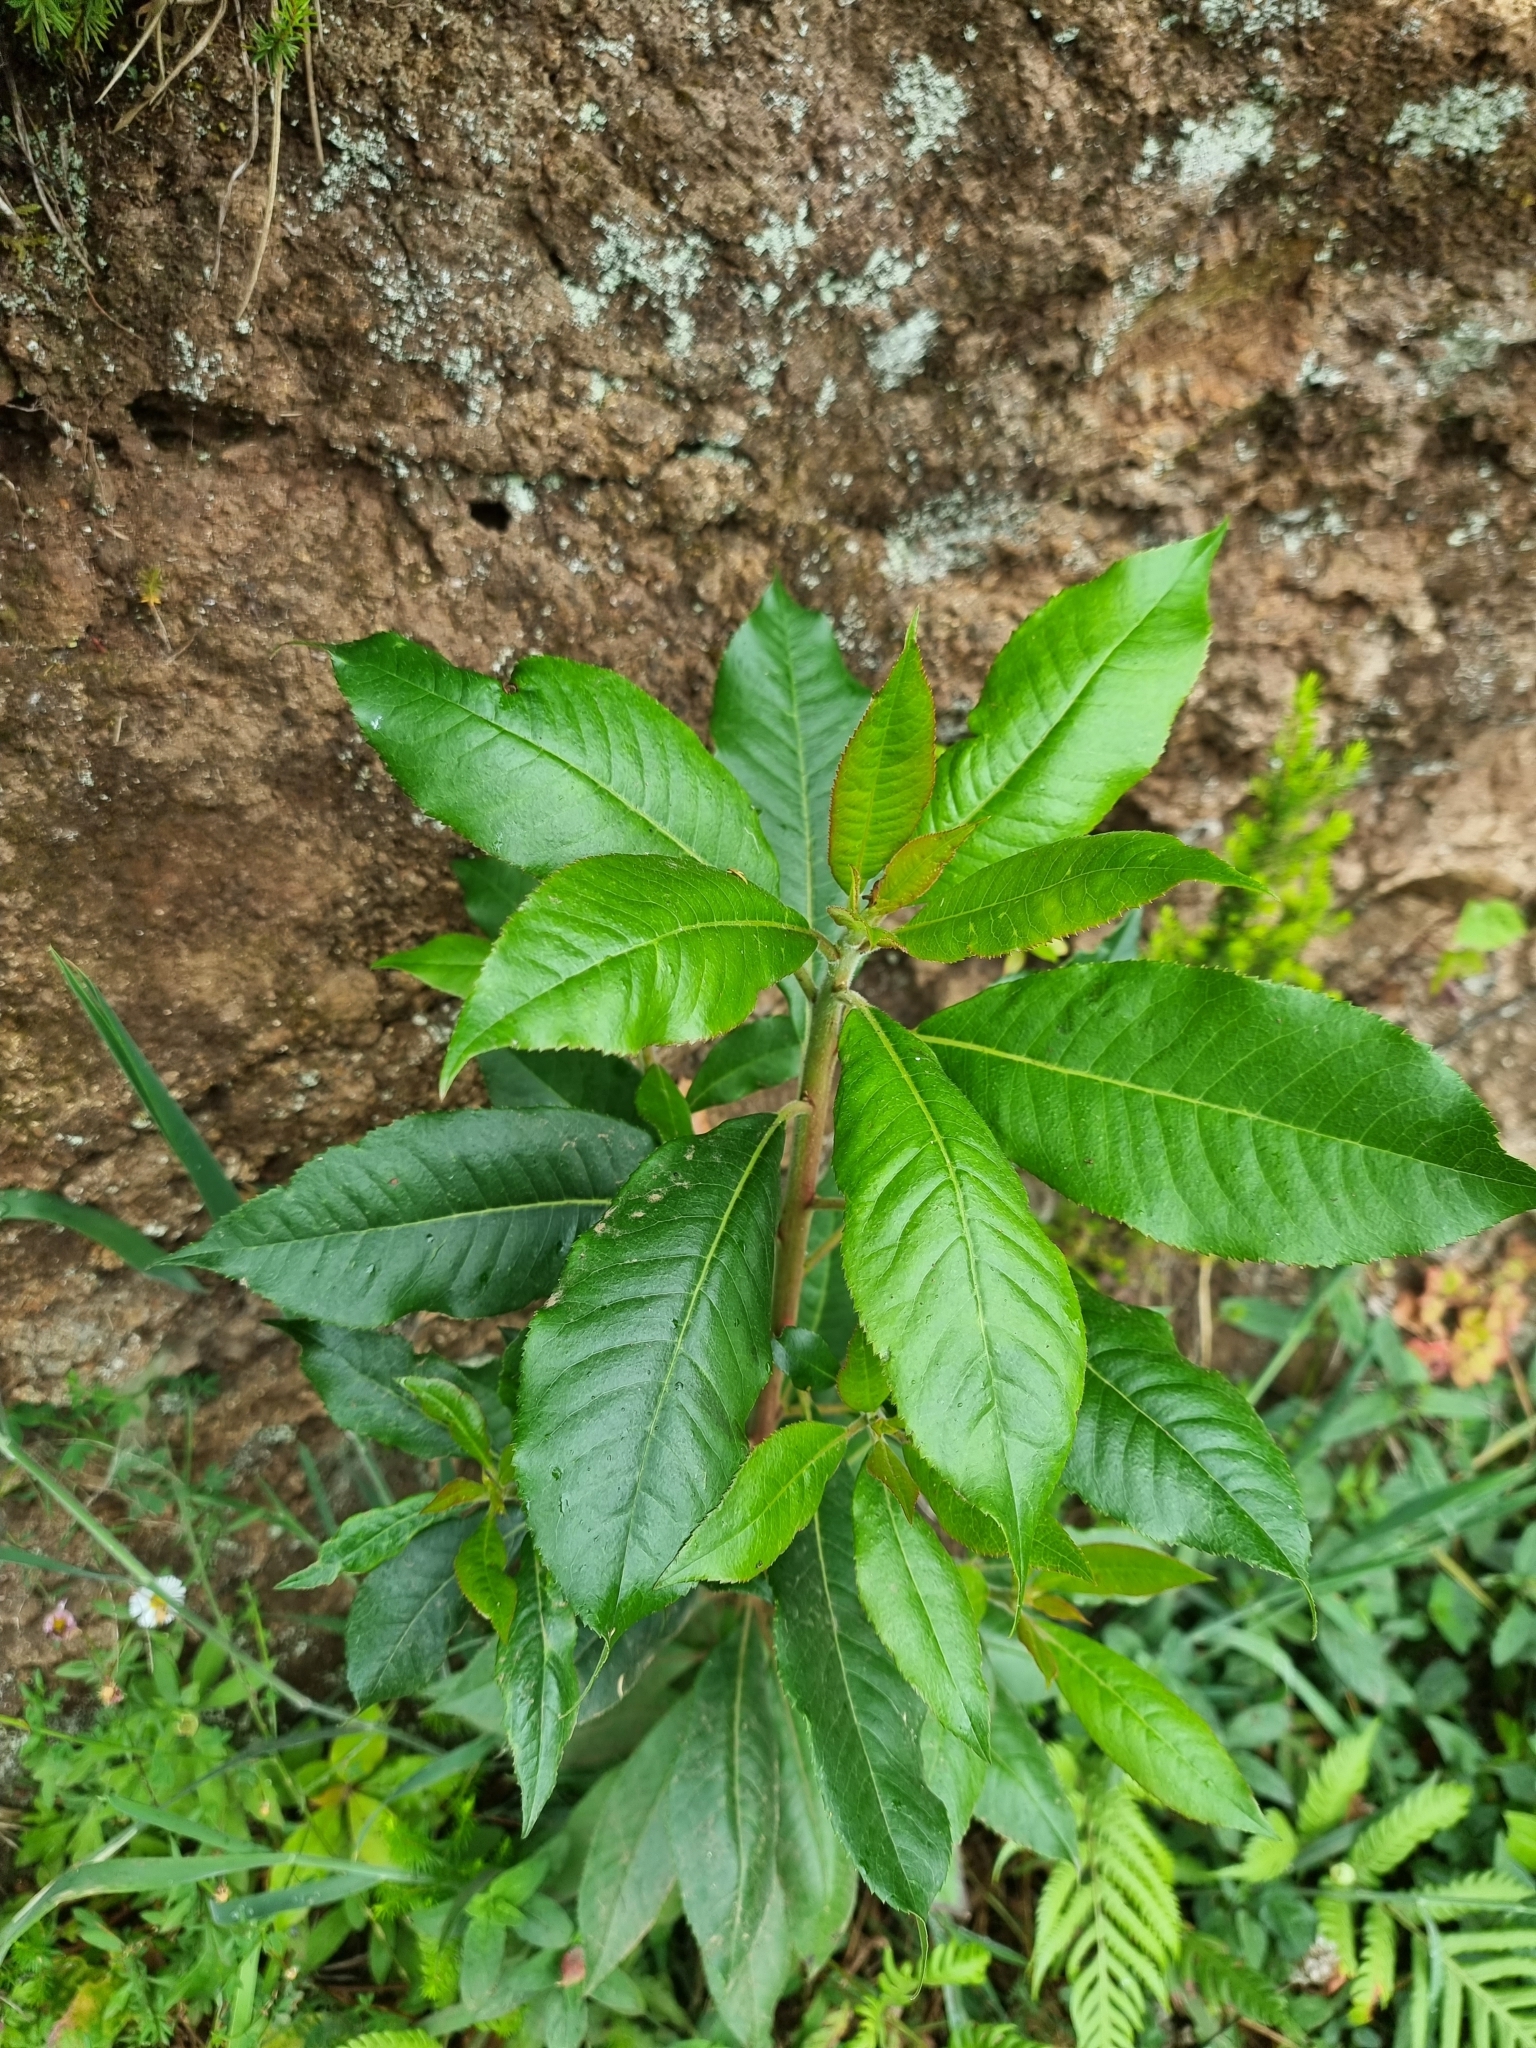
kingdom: Plantae
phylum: Tracheophyta
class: Magnoliopsida
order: Ericales
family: Clethraceae
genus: Clethra
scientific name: Clethra arborea
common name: Lily-of-the-valley-tree
